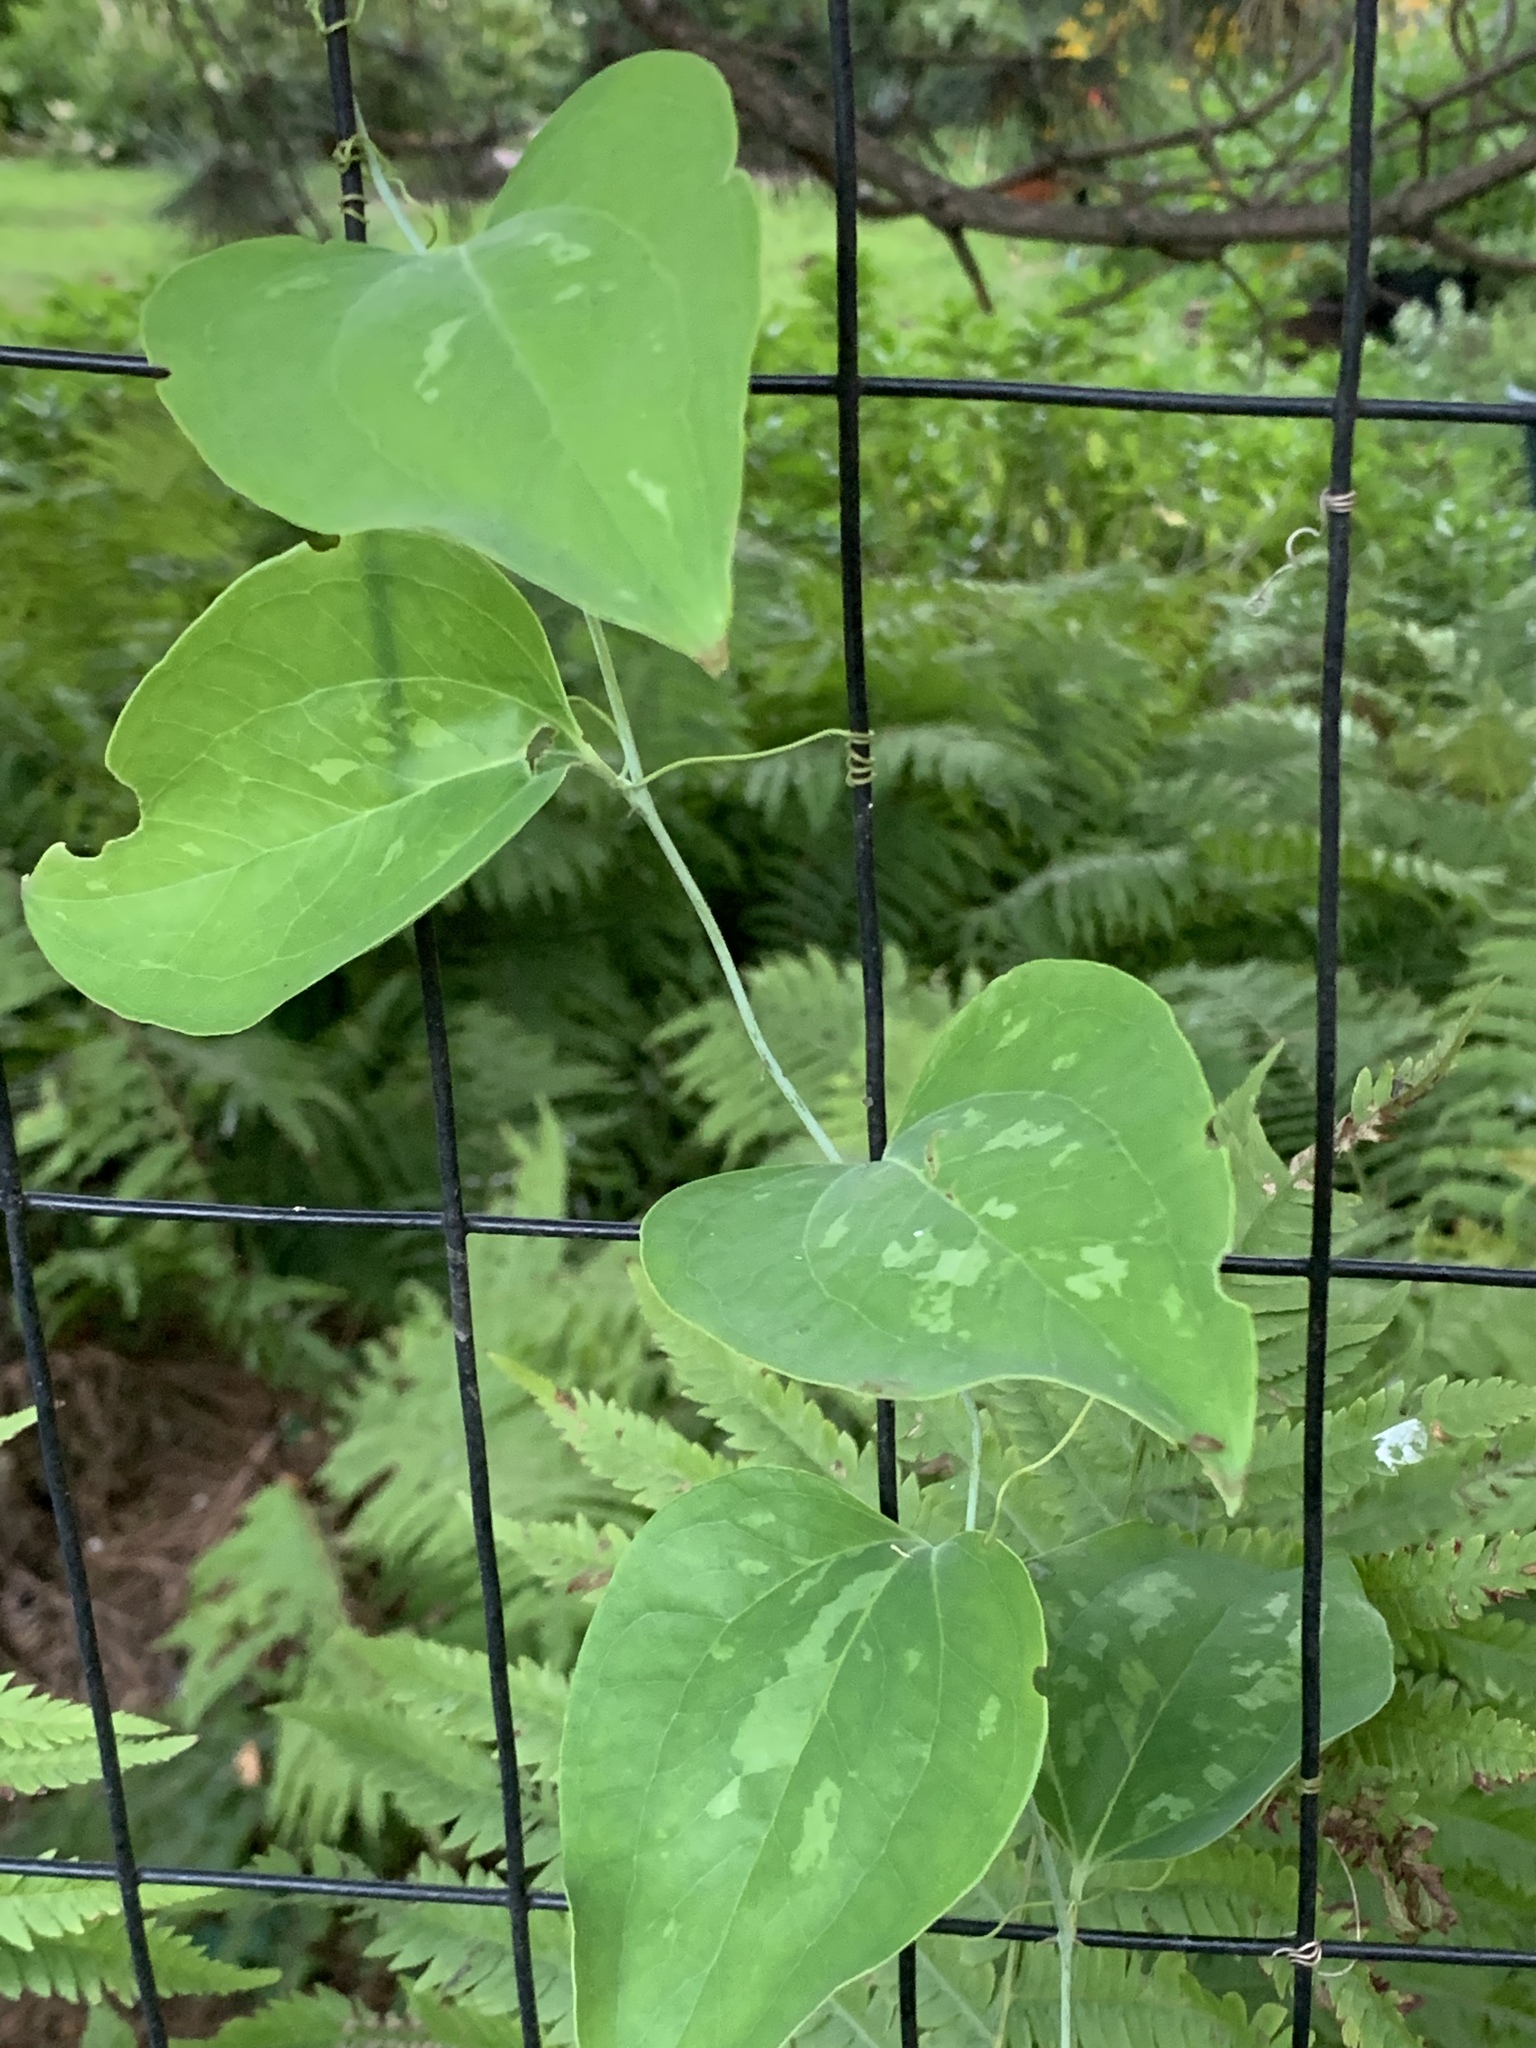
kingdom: Plantae
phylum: Tracheophyta
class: Liliopsida
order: Liliales
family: Smilacaceae
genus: Smilax
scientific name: Smilax glauca
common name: Cat greenbrier
